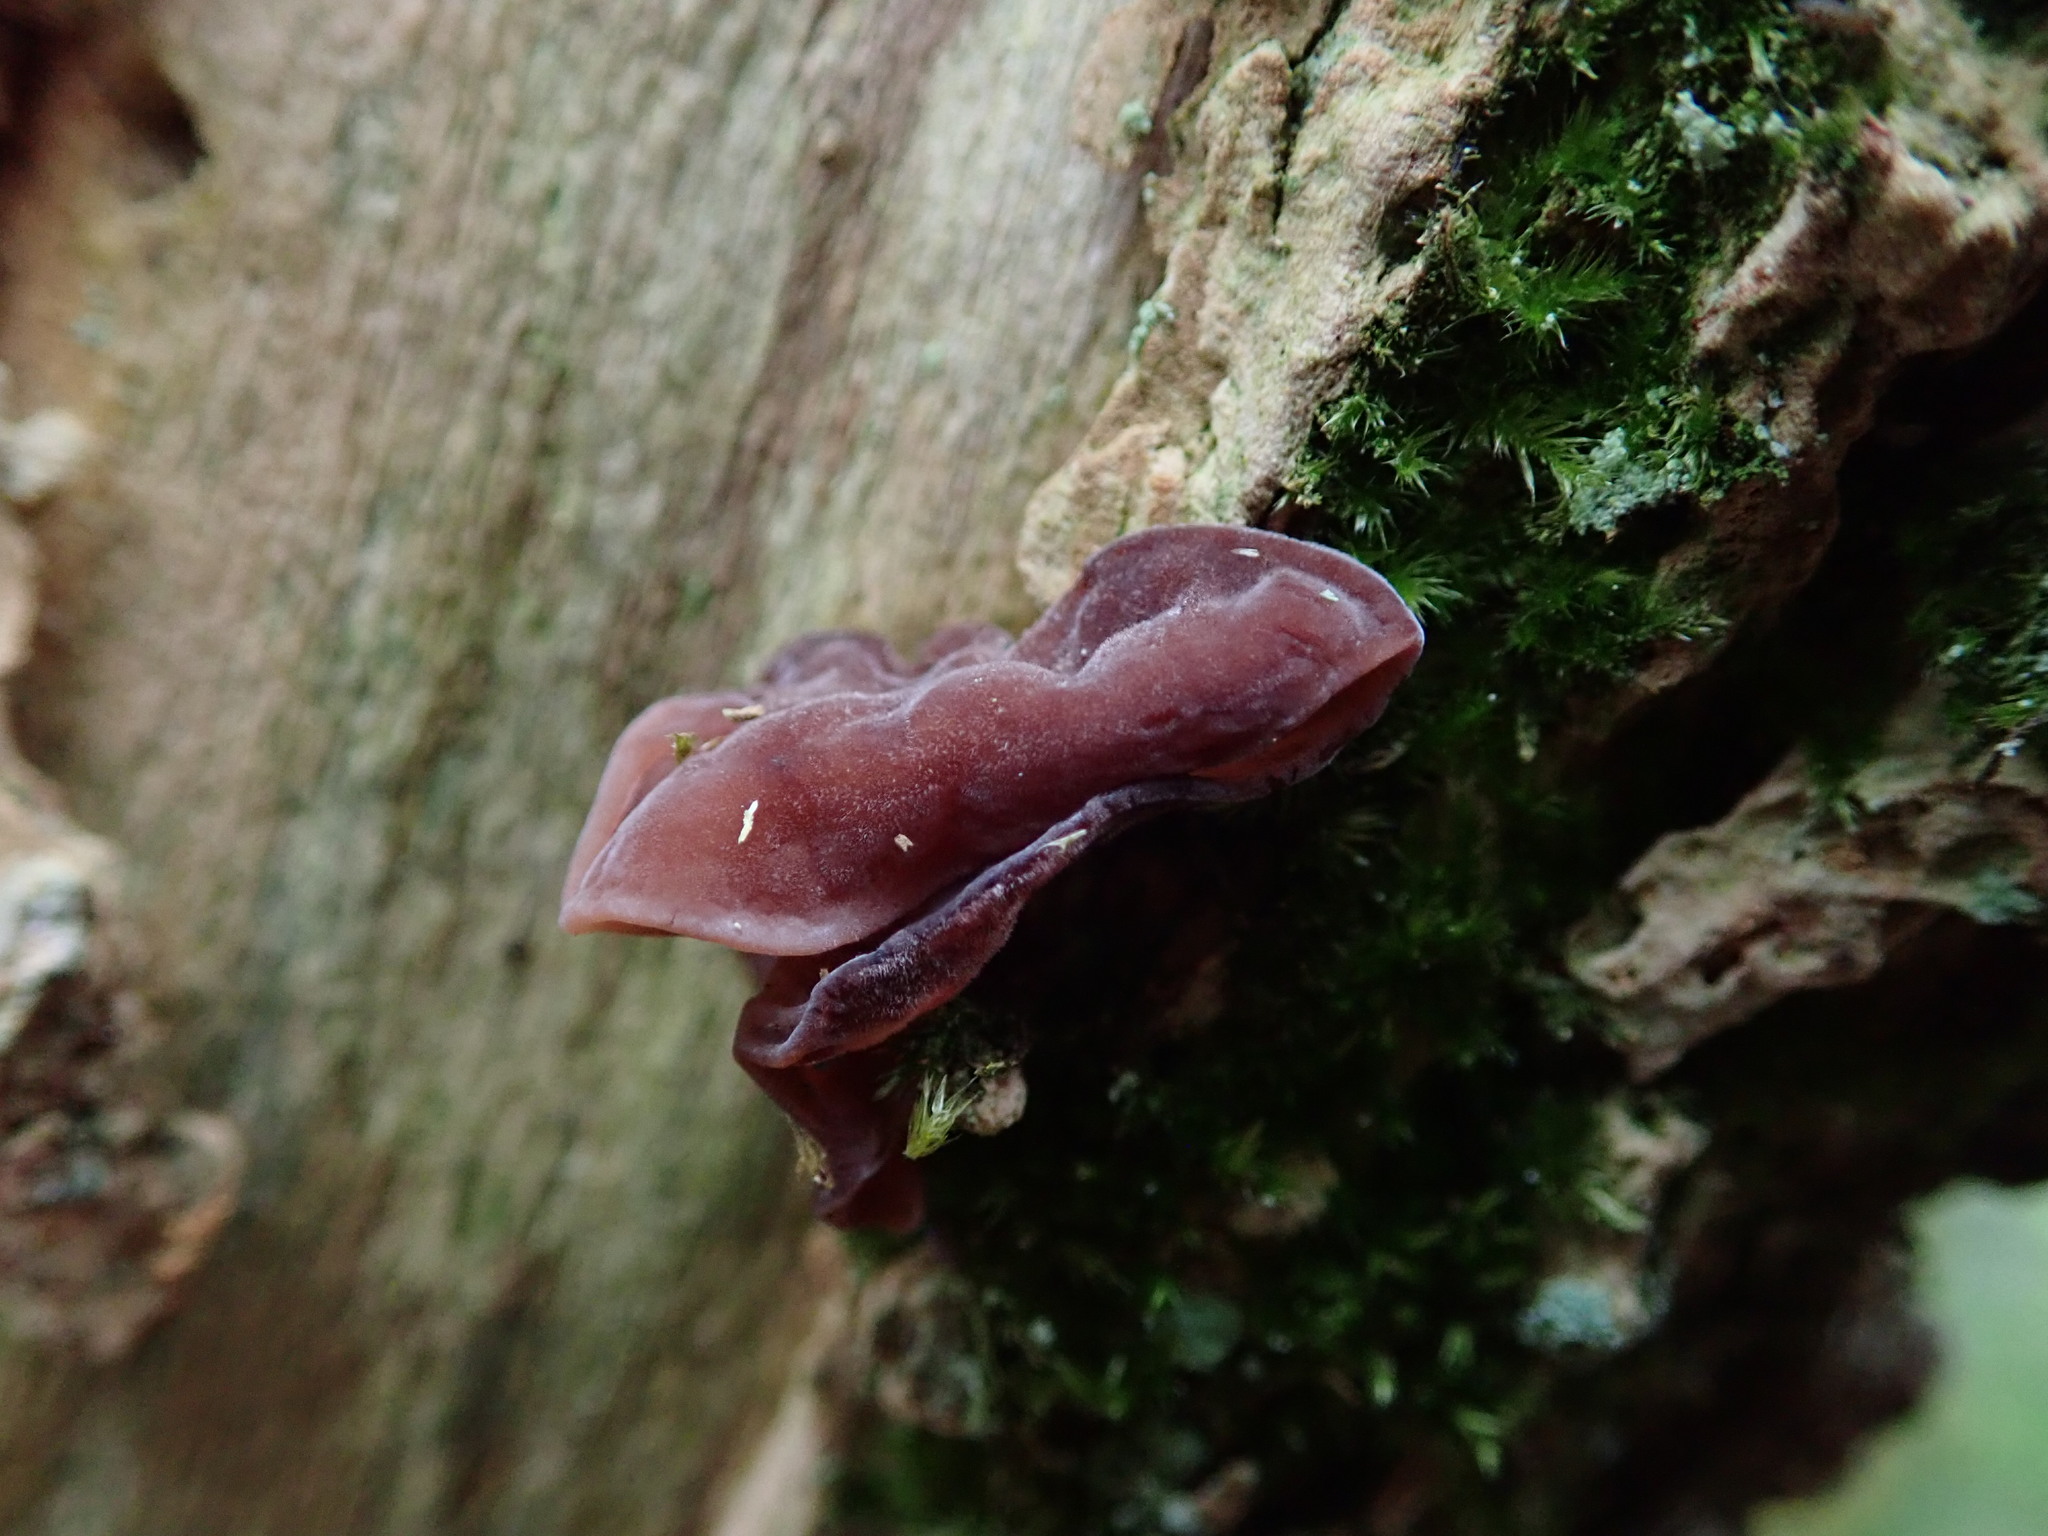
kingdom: Fungi
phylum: Basidiomycota
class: Agaricomycetes
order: Auriculariales
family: Auriculariaceae
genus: Auricularia
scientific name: Auricularia auricula-judae
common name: Jelly ear
